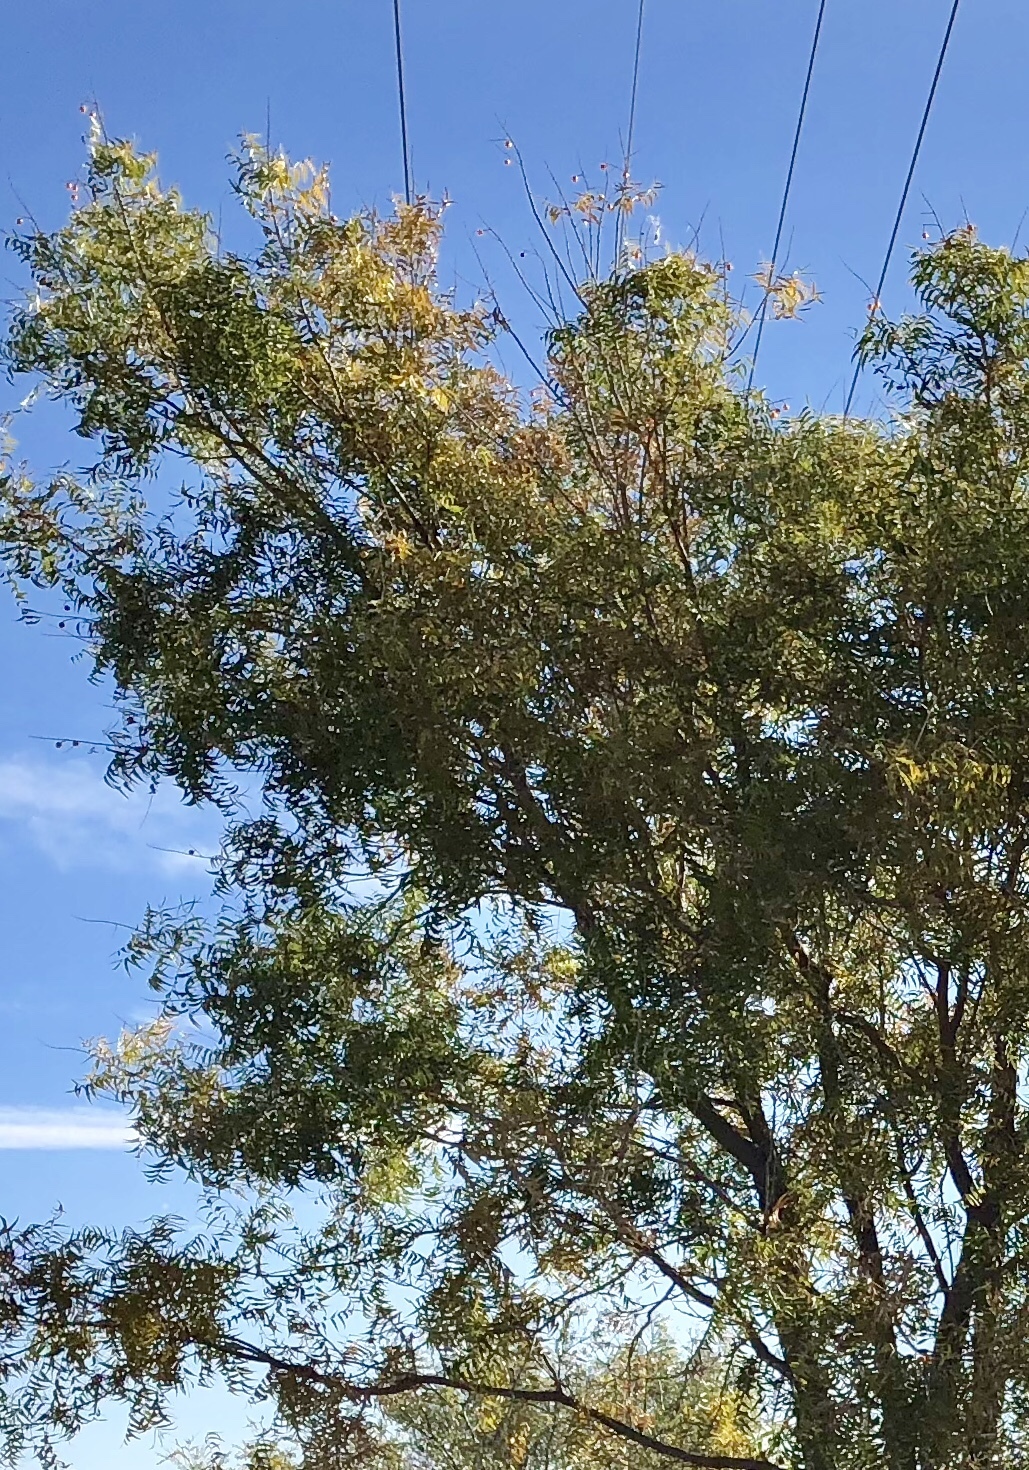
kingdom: Plantae
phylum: Tracheophyta
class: Magnoliopsida
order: Fagales
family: Juglandaceae
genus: Juglans
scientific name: Juglans major
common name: Arizona walnut
